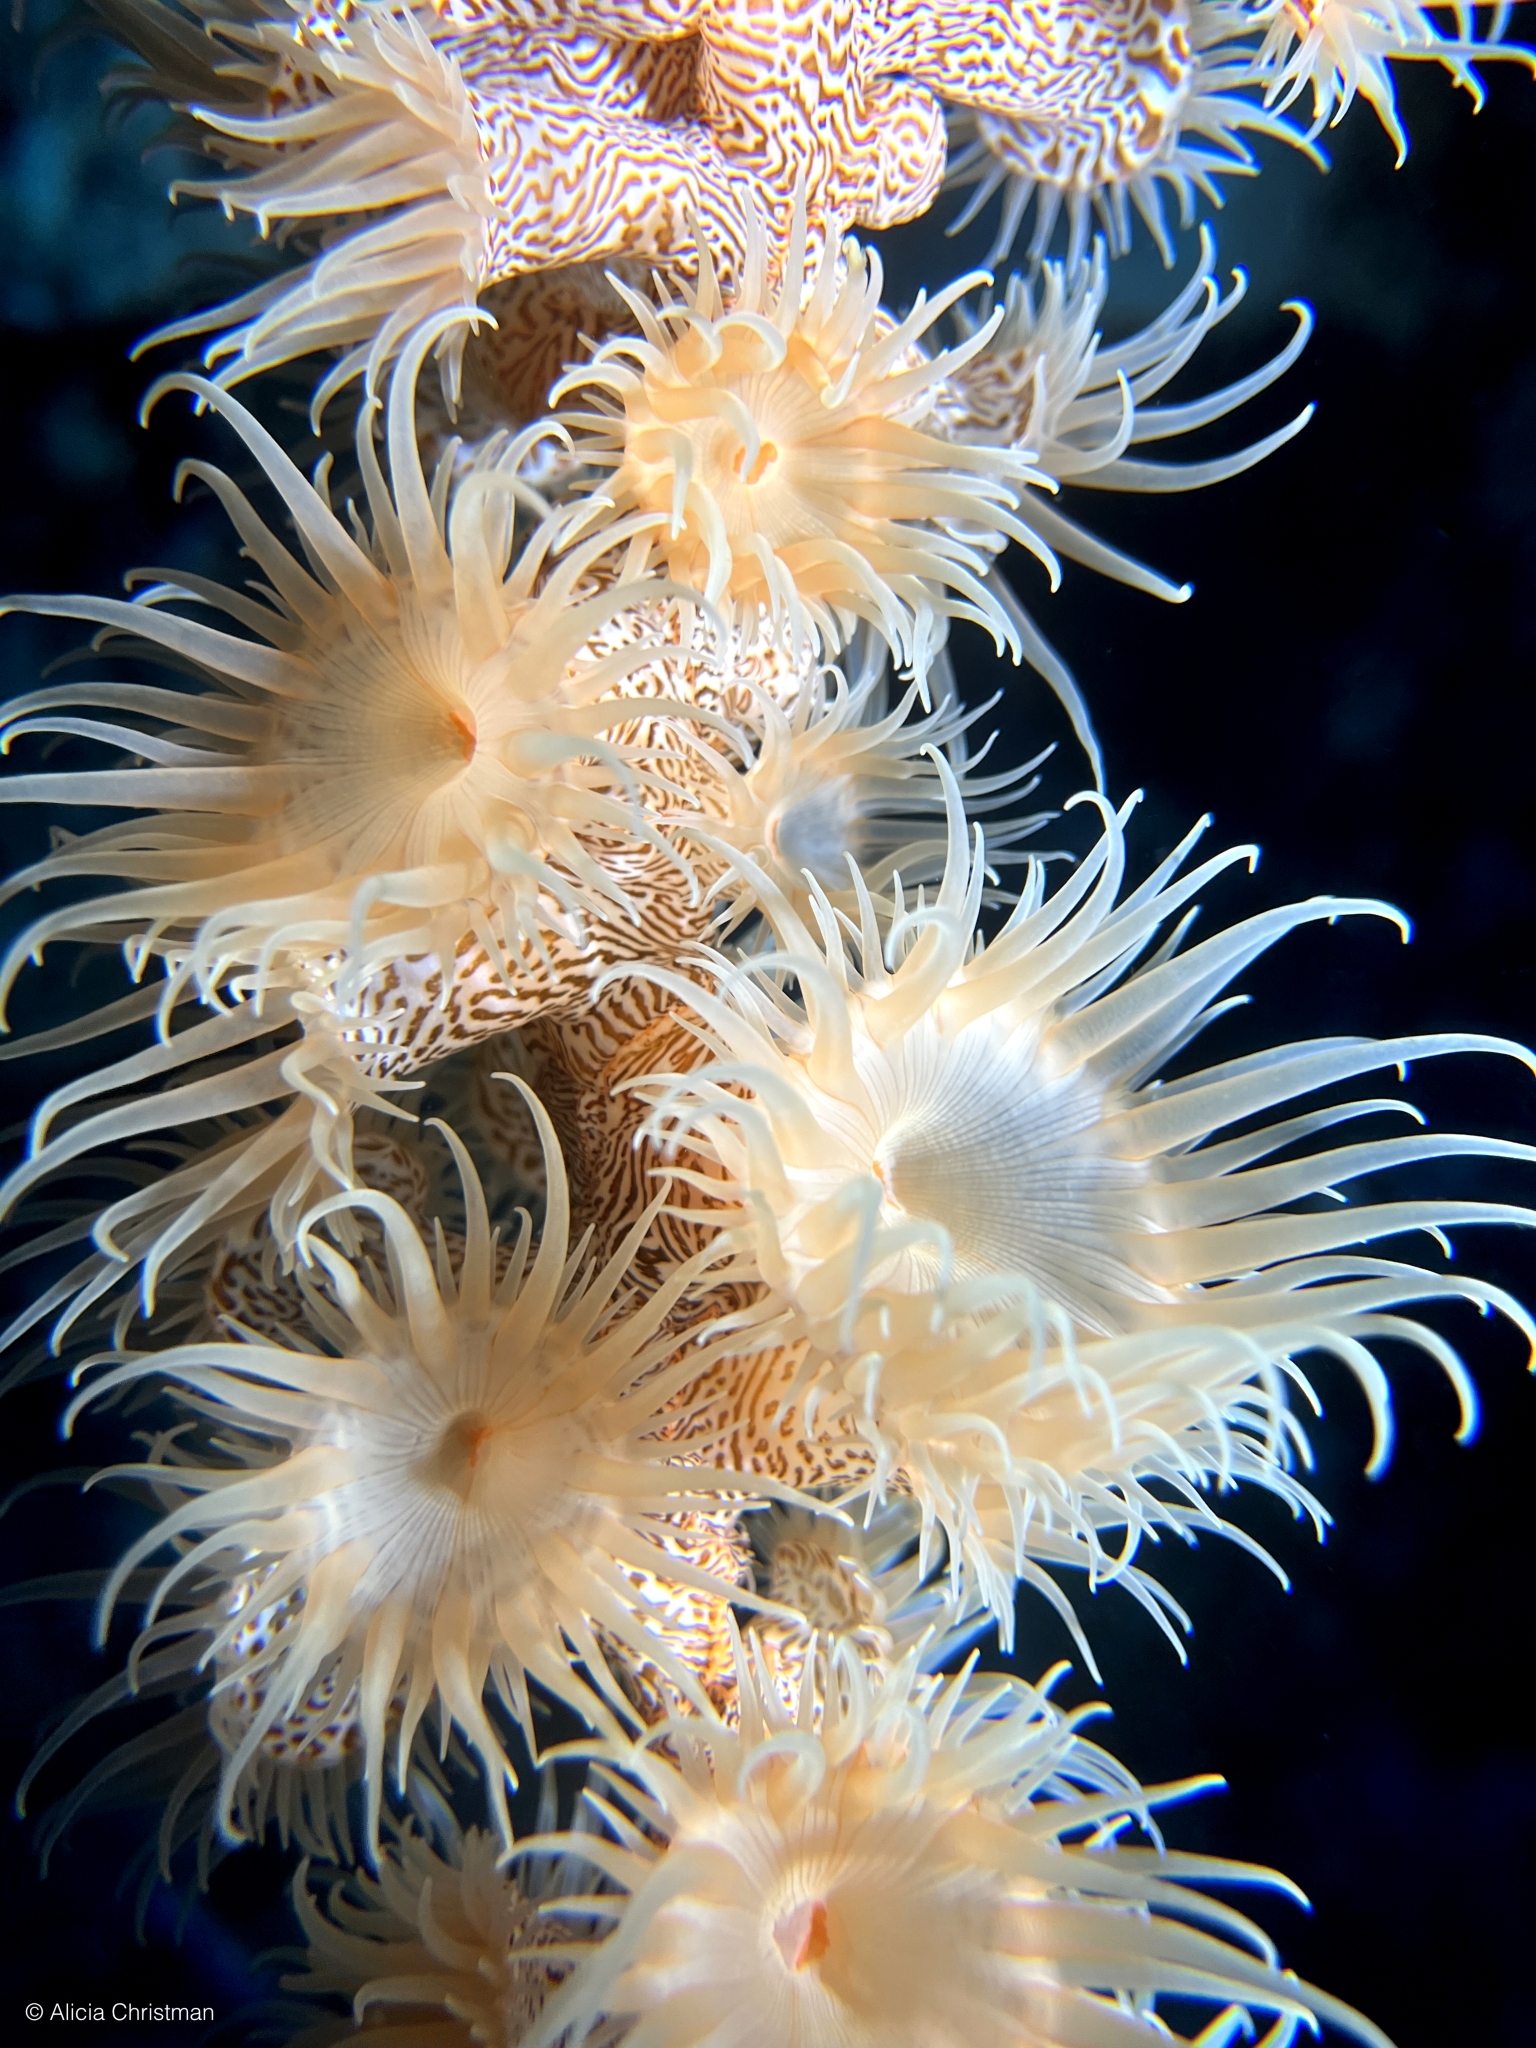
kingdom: Animalia
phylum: Cnidaria
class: Anthozoa
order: Actiniaria
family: Nemanthidae
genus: Nemanthus
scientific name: Nemanthus nitidus
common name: Jewel anemone
